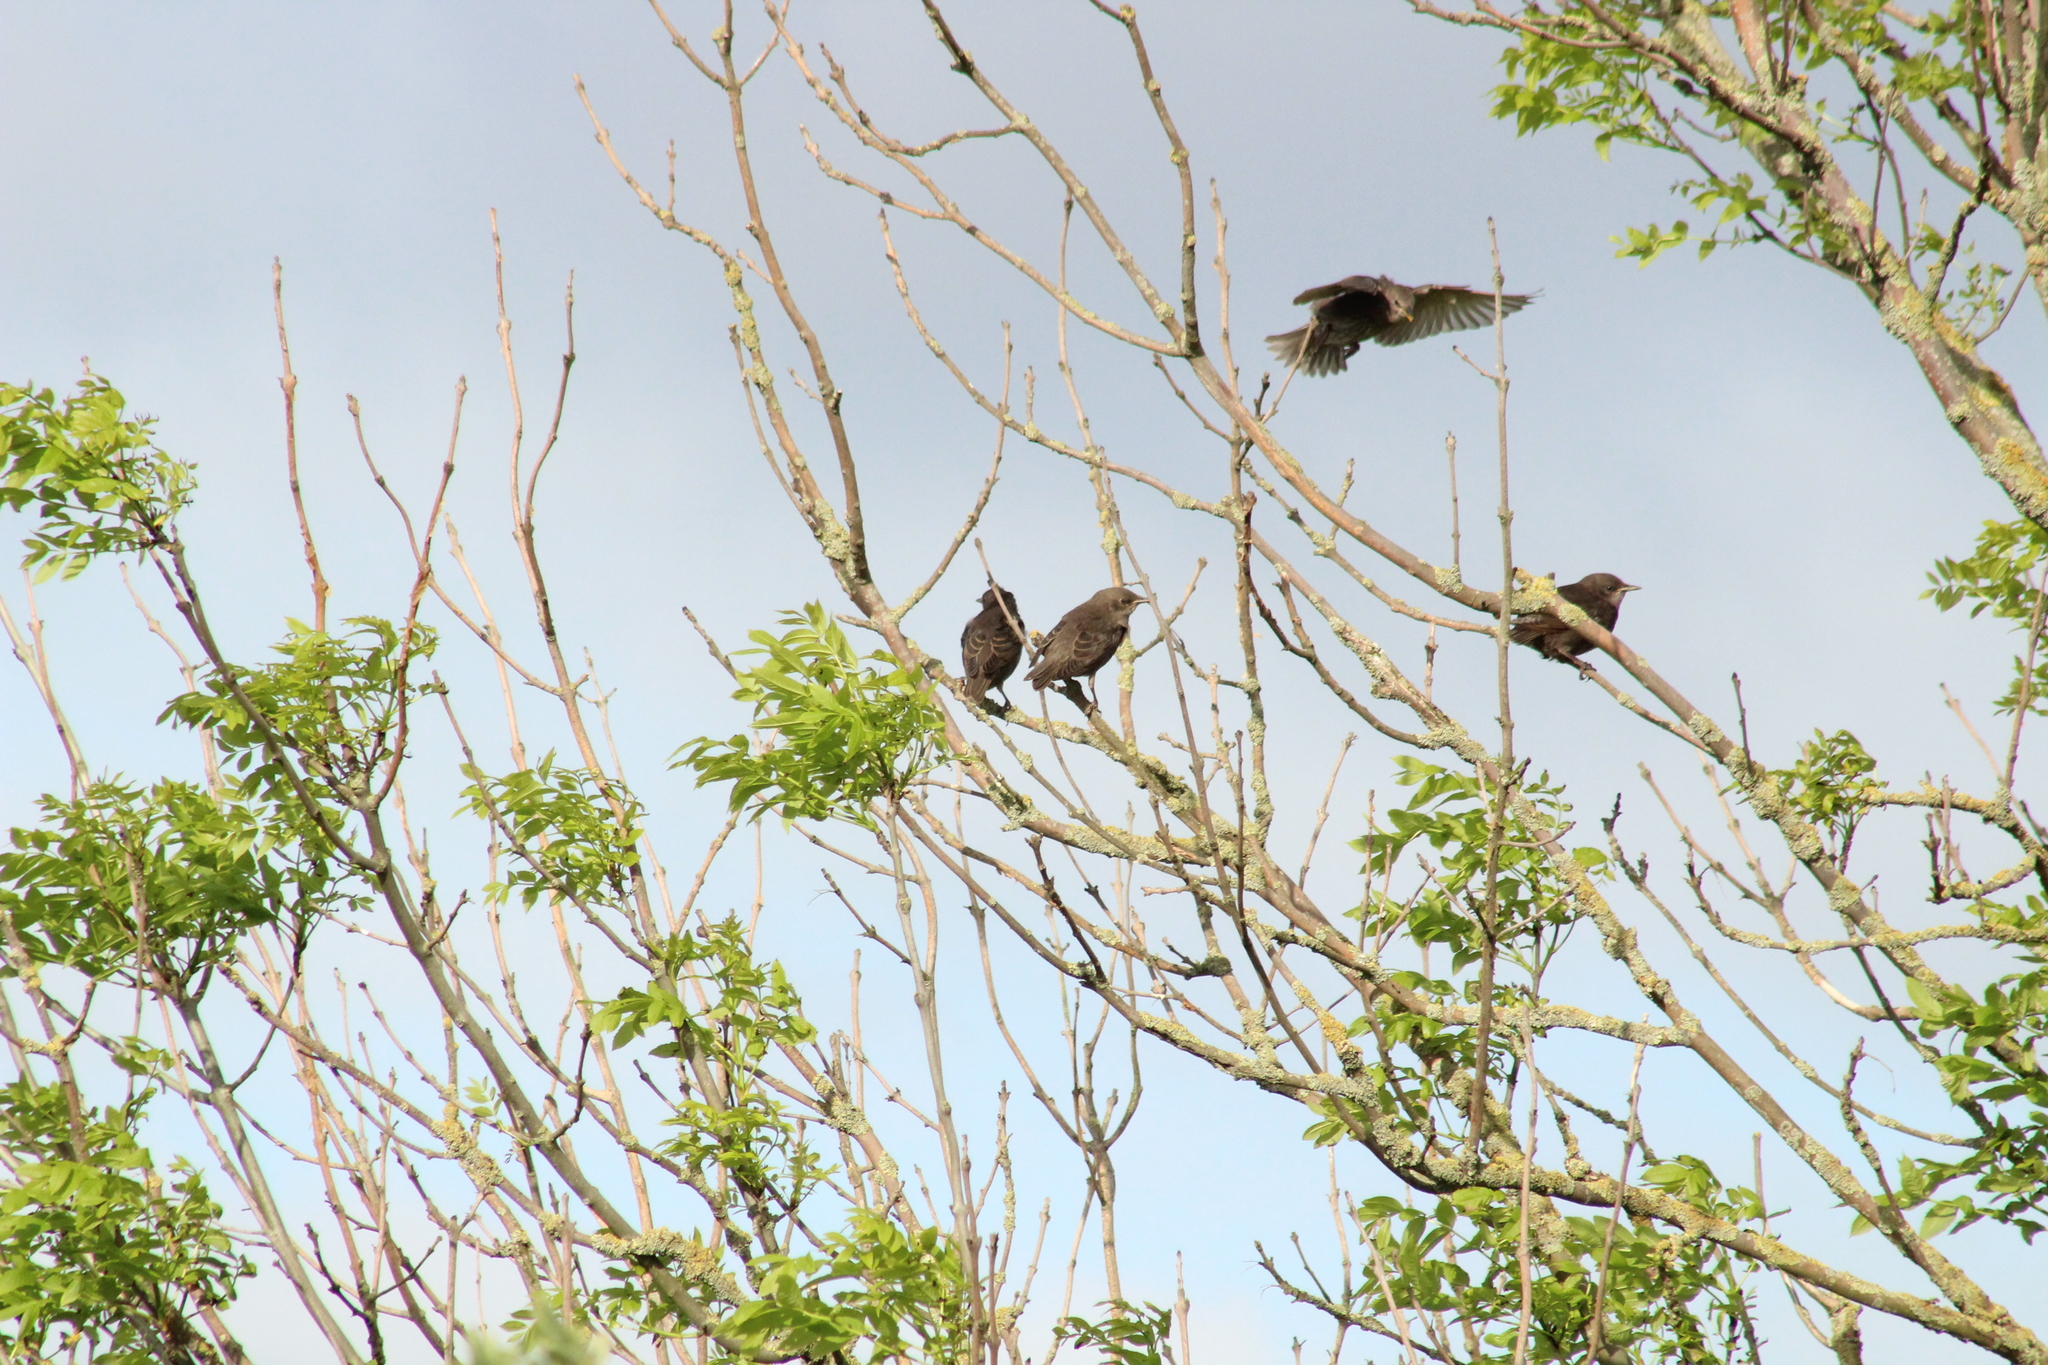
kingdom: Animalia
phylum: Chordata
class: Aves
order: Passeriformes
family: Sturnidae
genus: Sturnus
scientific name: Sturnus vulgaris
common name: Common starling
